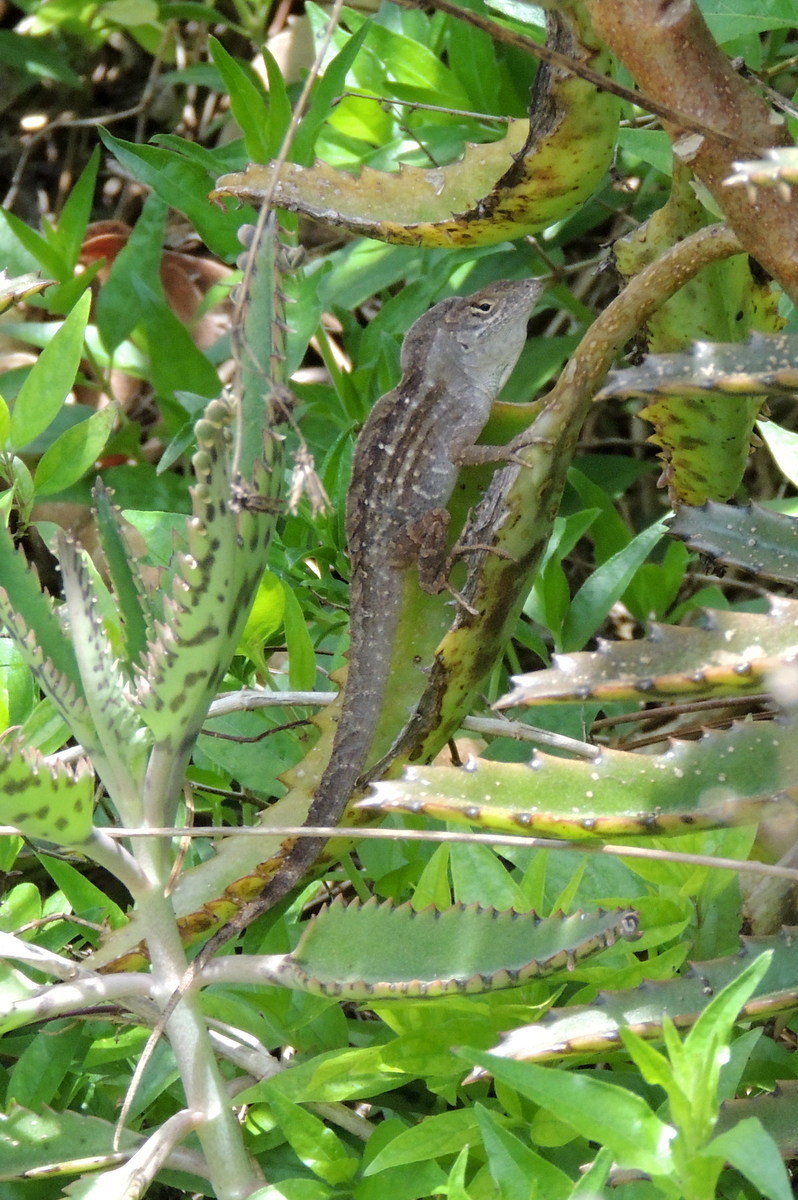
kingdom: Animalia
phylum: Chordata
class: Squamata
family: Dactyloidae
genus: Anolis
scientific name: Anolis sagrei
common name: Brown anole
